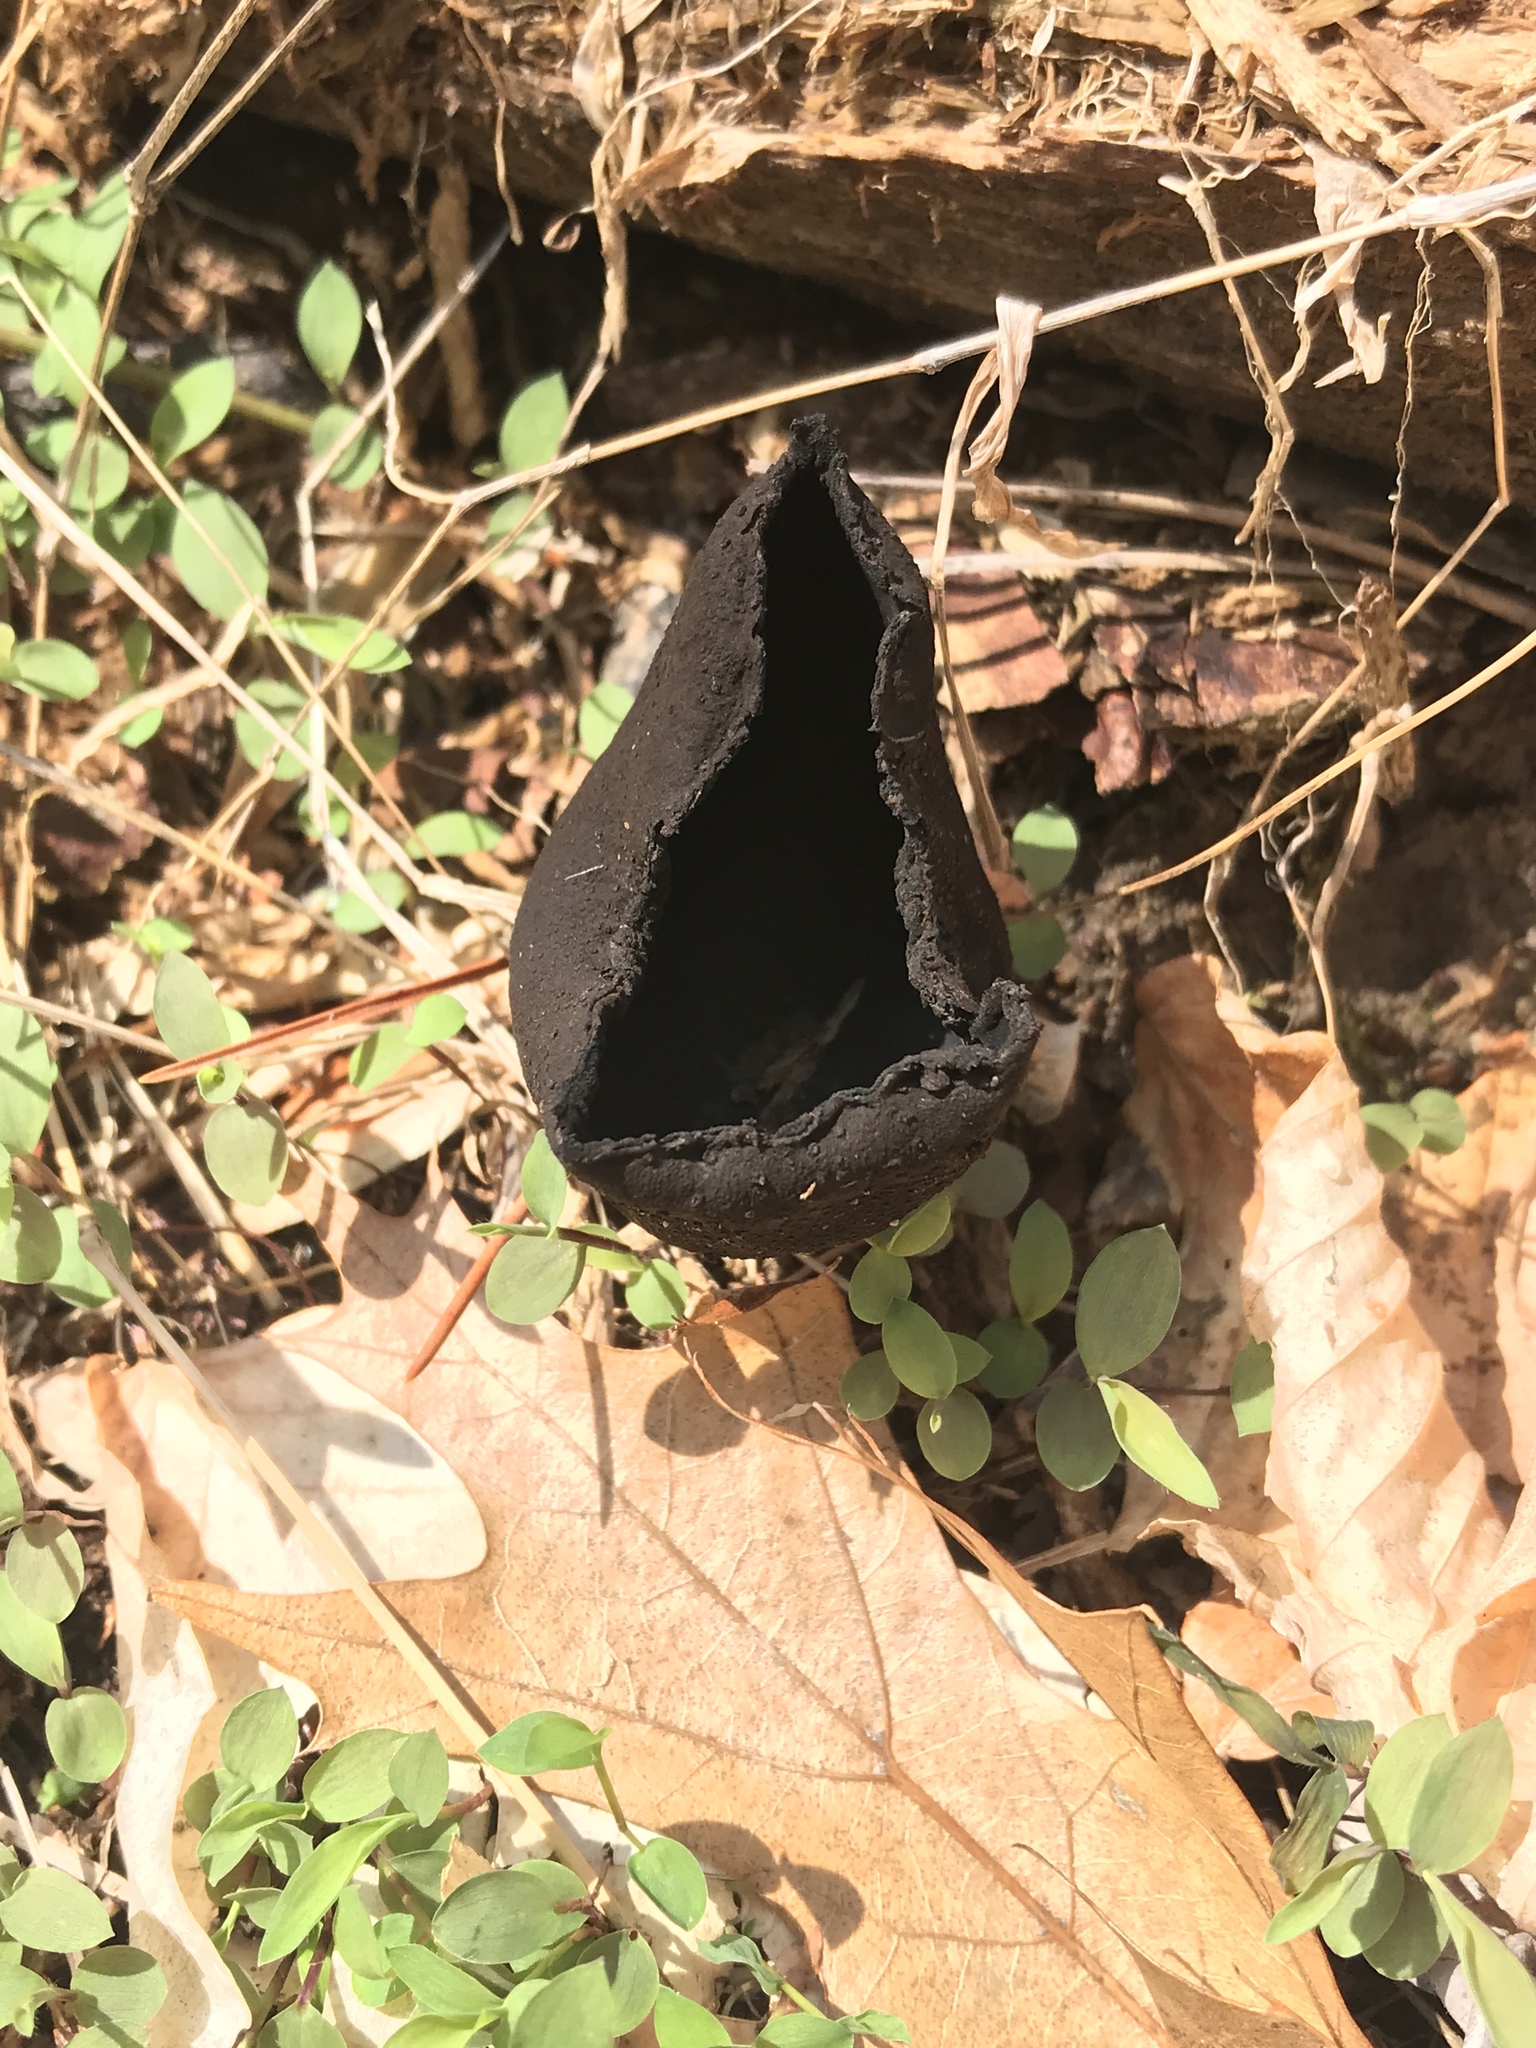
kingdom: Fungi
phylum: Ascomycota
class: Pezizomycetes
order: Pezizales
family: Sarcosomataceae
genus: Urnula
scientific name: Urnula craterium
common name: Devil's urn
